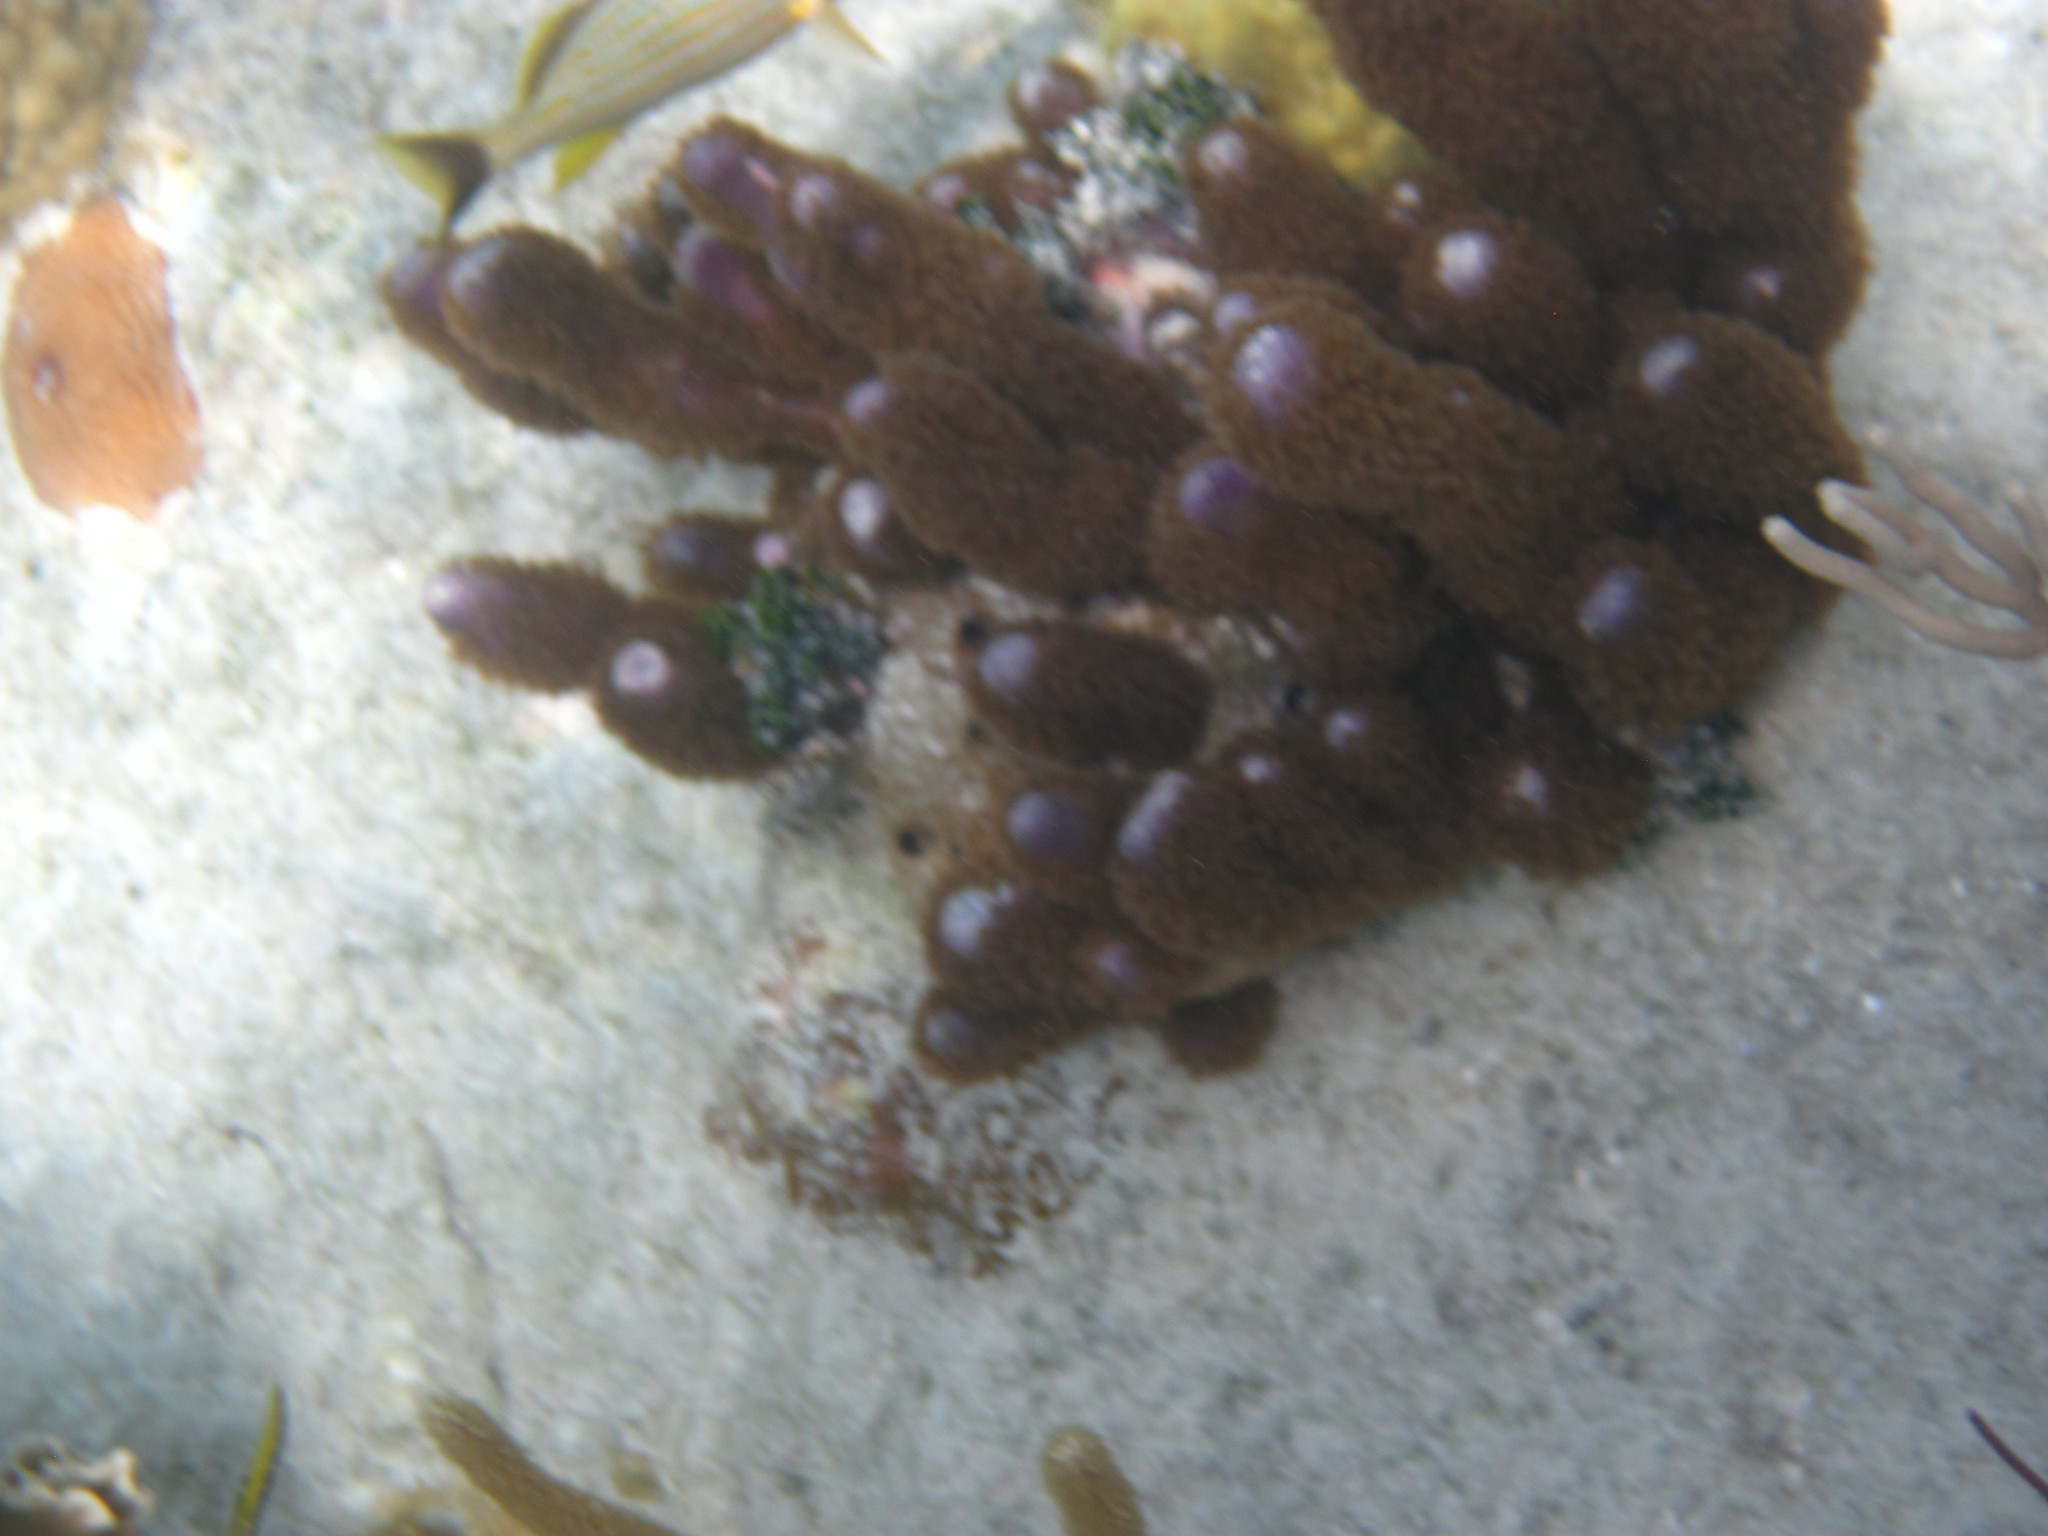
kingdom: Animalia
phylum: Cnidaria
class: Anthozoa
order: Scleralcyonacea
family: Briareidae
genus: Briareum
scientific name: Briareum asbestinum
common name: Corky sea finger
